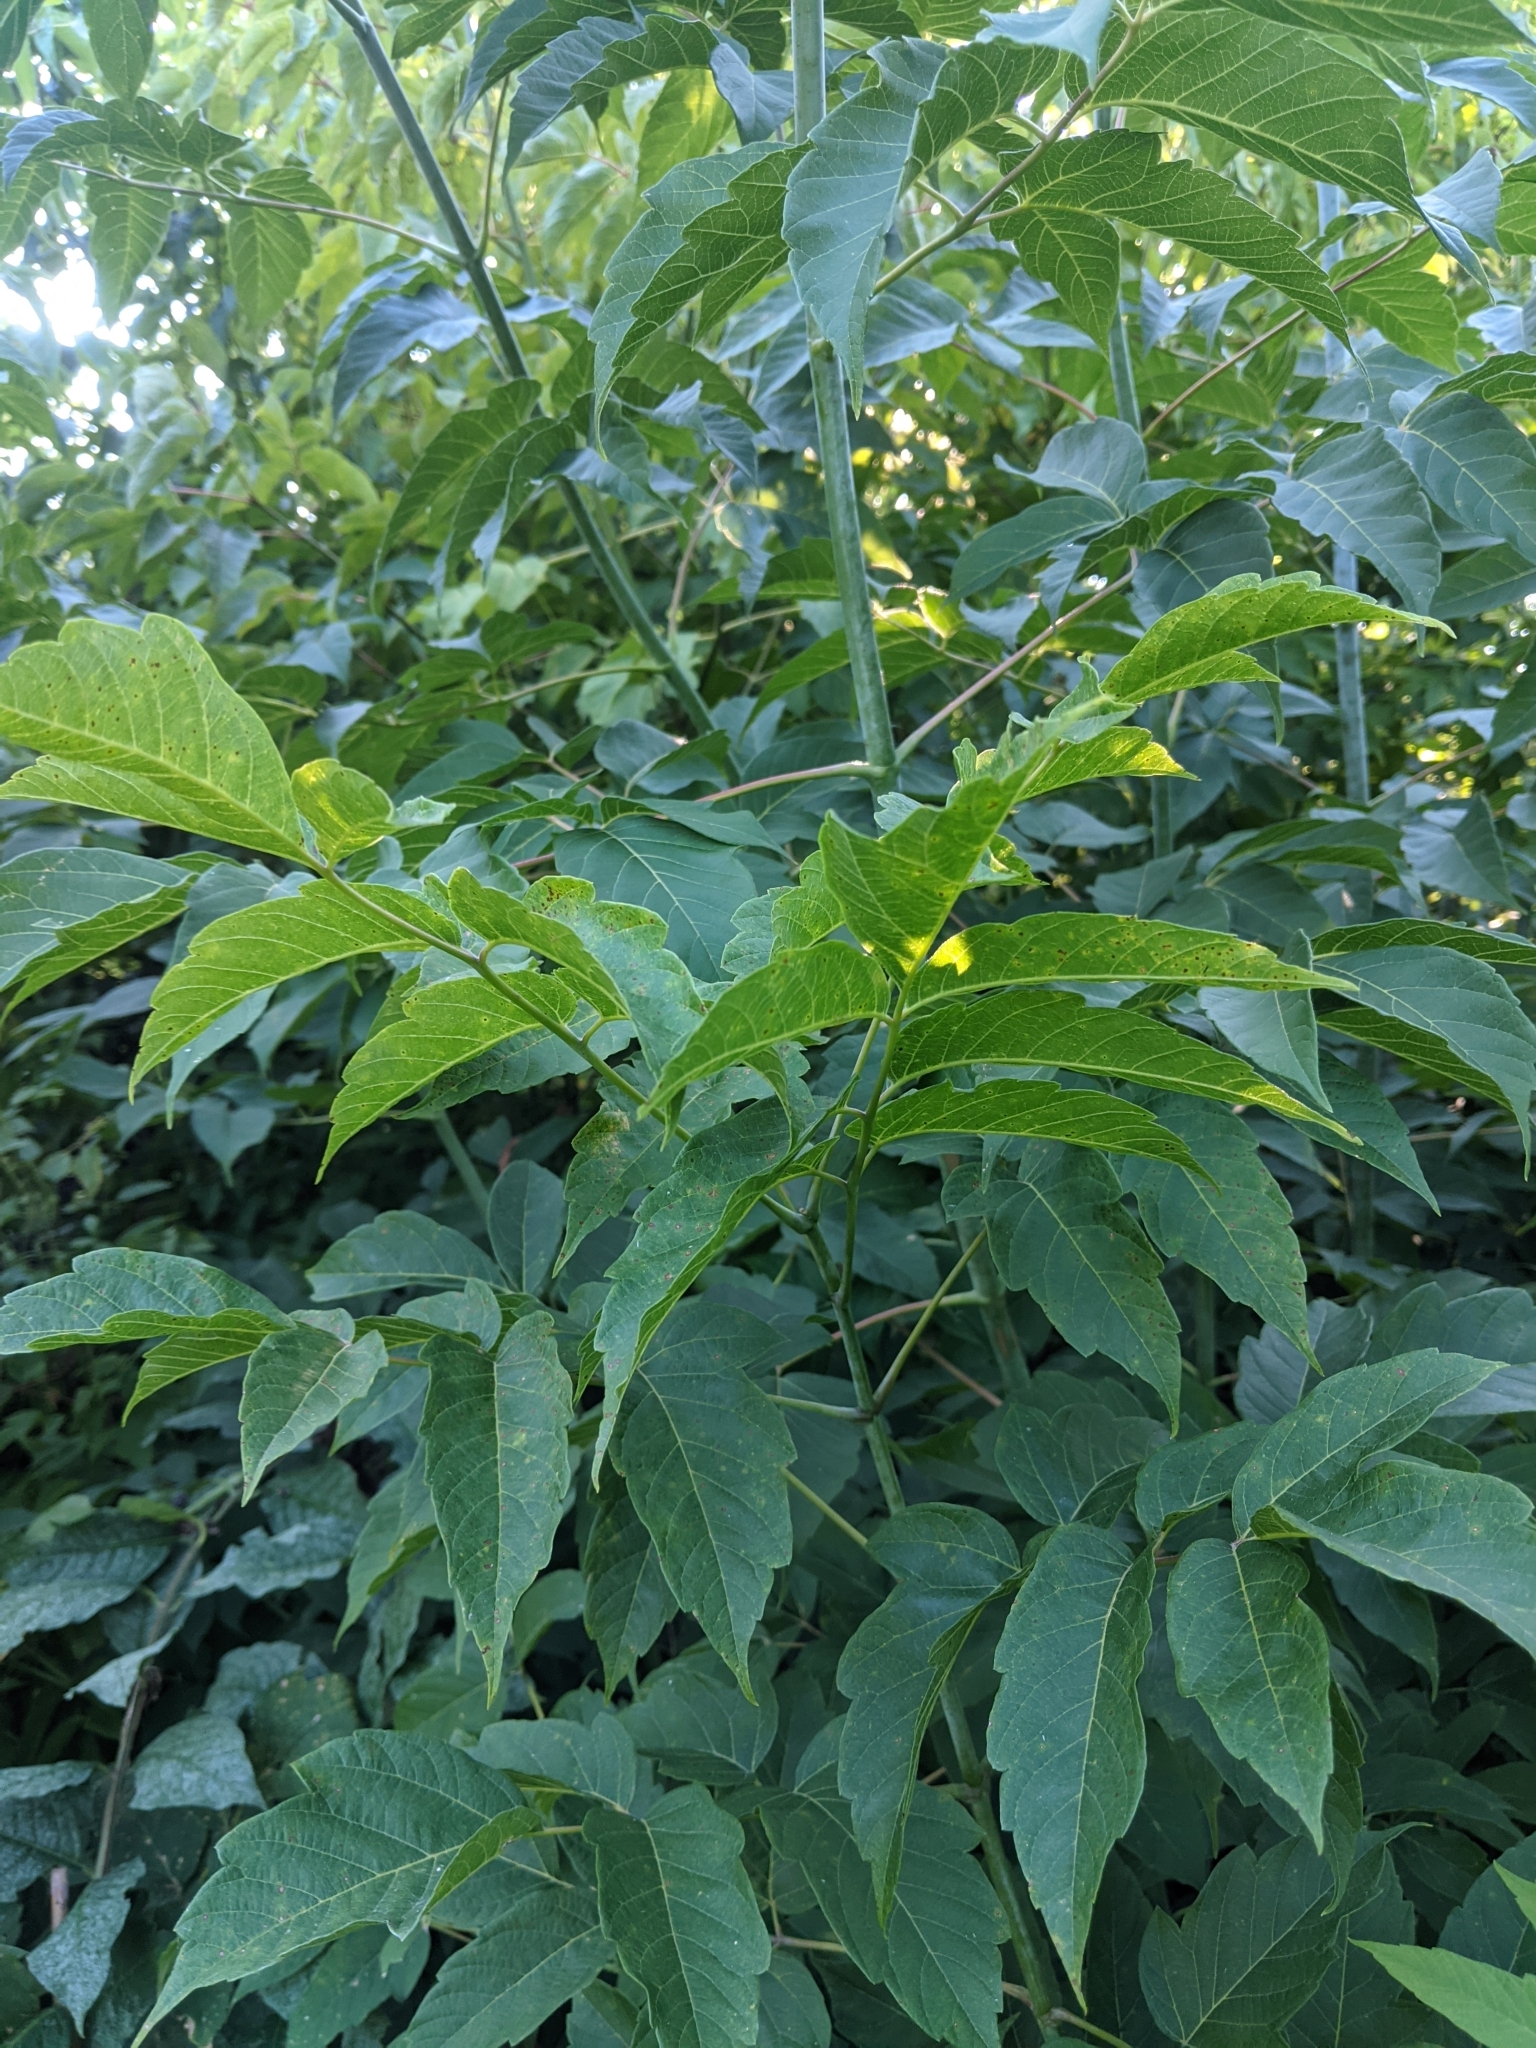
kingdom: Plantae
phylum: Tracheophyta
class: Magnoliopsida
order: Sapindales
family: Sapindaceae
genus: Acer
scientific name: Acer negundo
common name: Ashleaf maple
